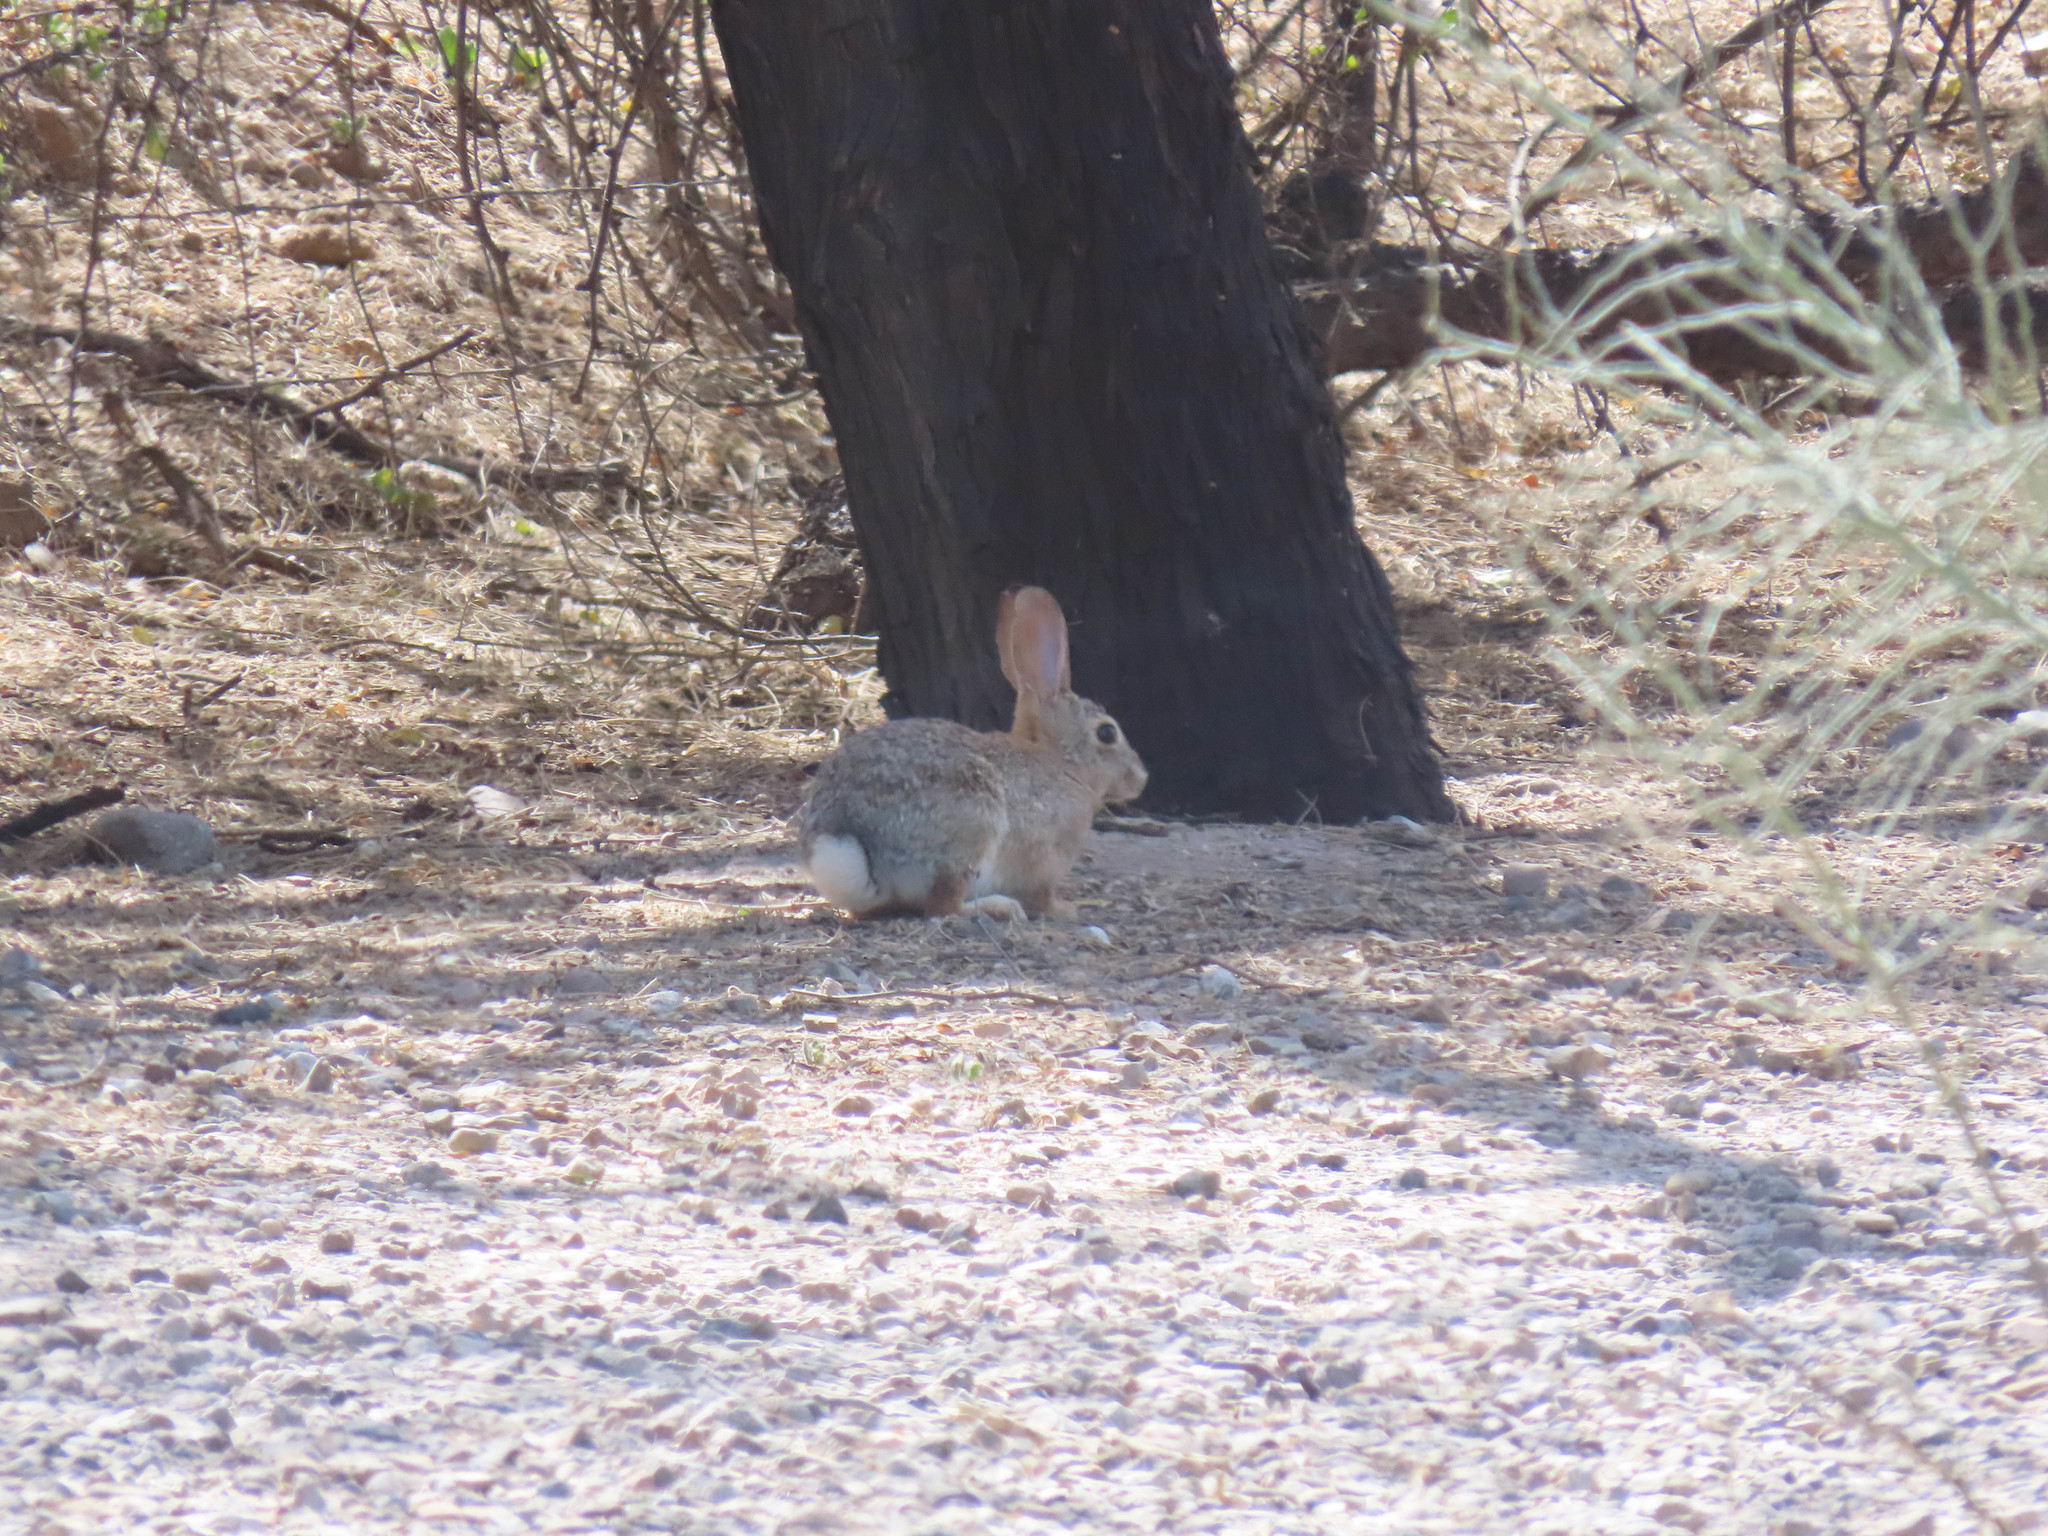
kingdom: Animalia
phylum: Chordata
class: Mammalia
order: Lagomorpha
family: Leporidae
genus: Sylvilagus
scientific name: Sylvilagus audubonii
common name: Desert cottontail
